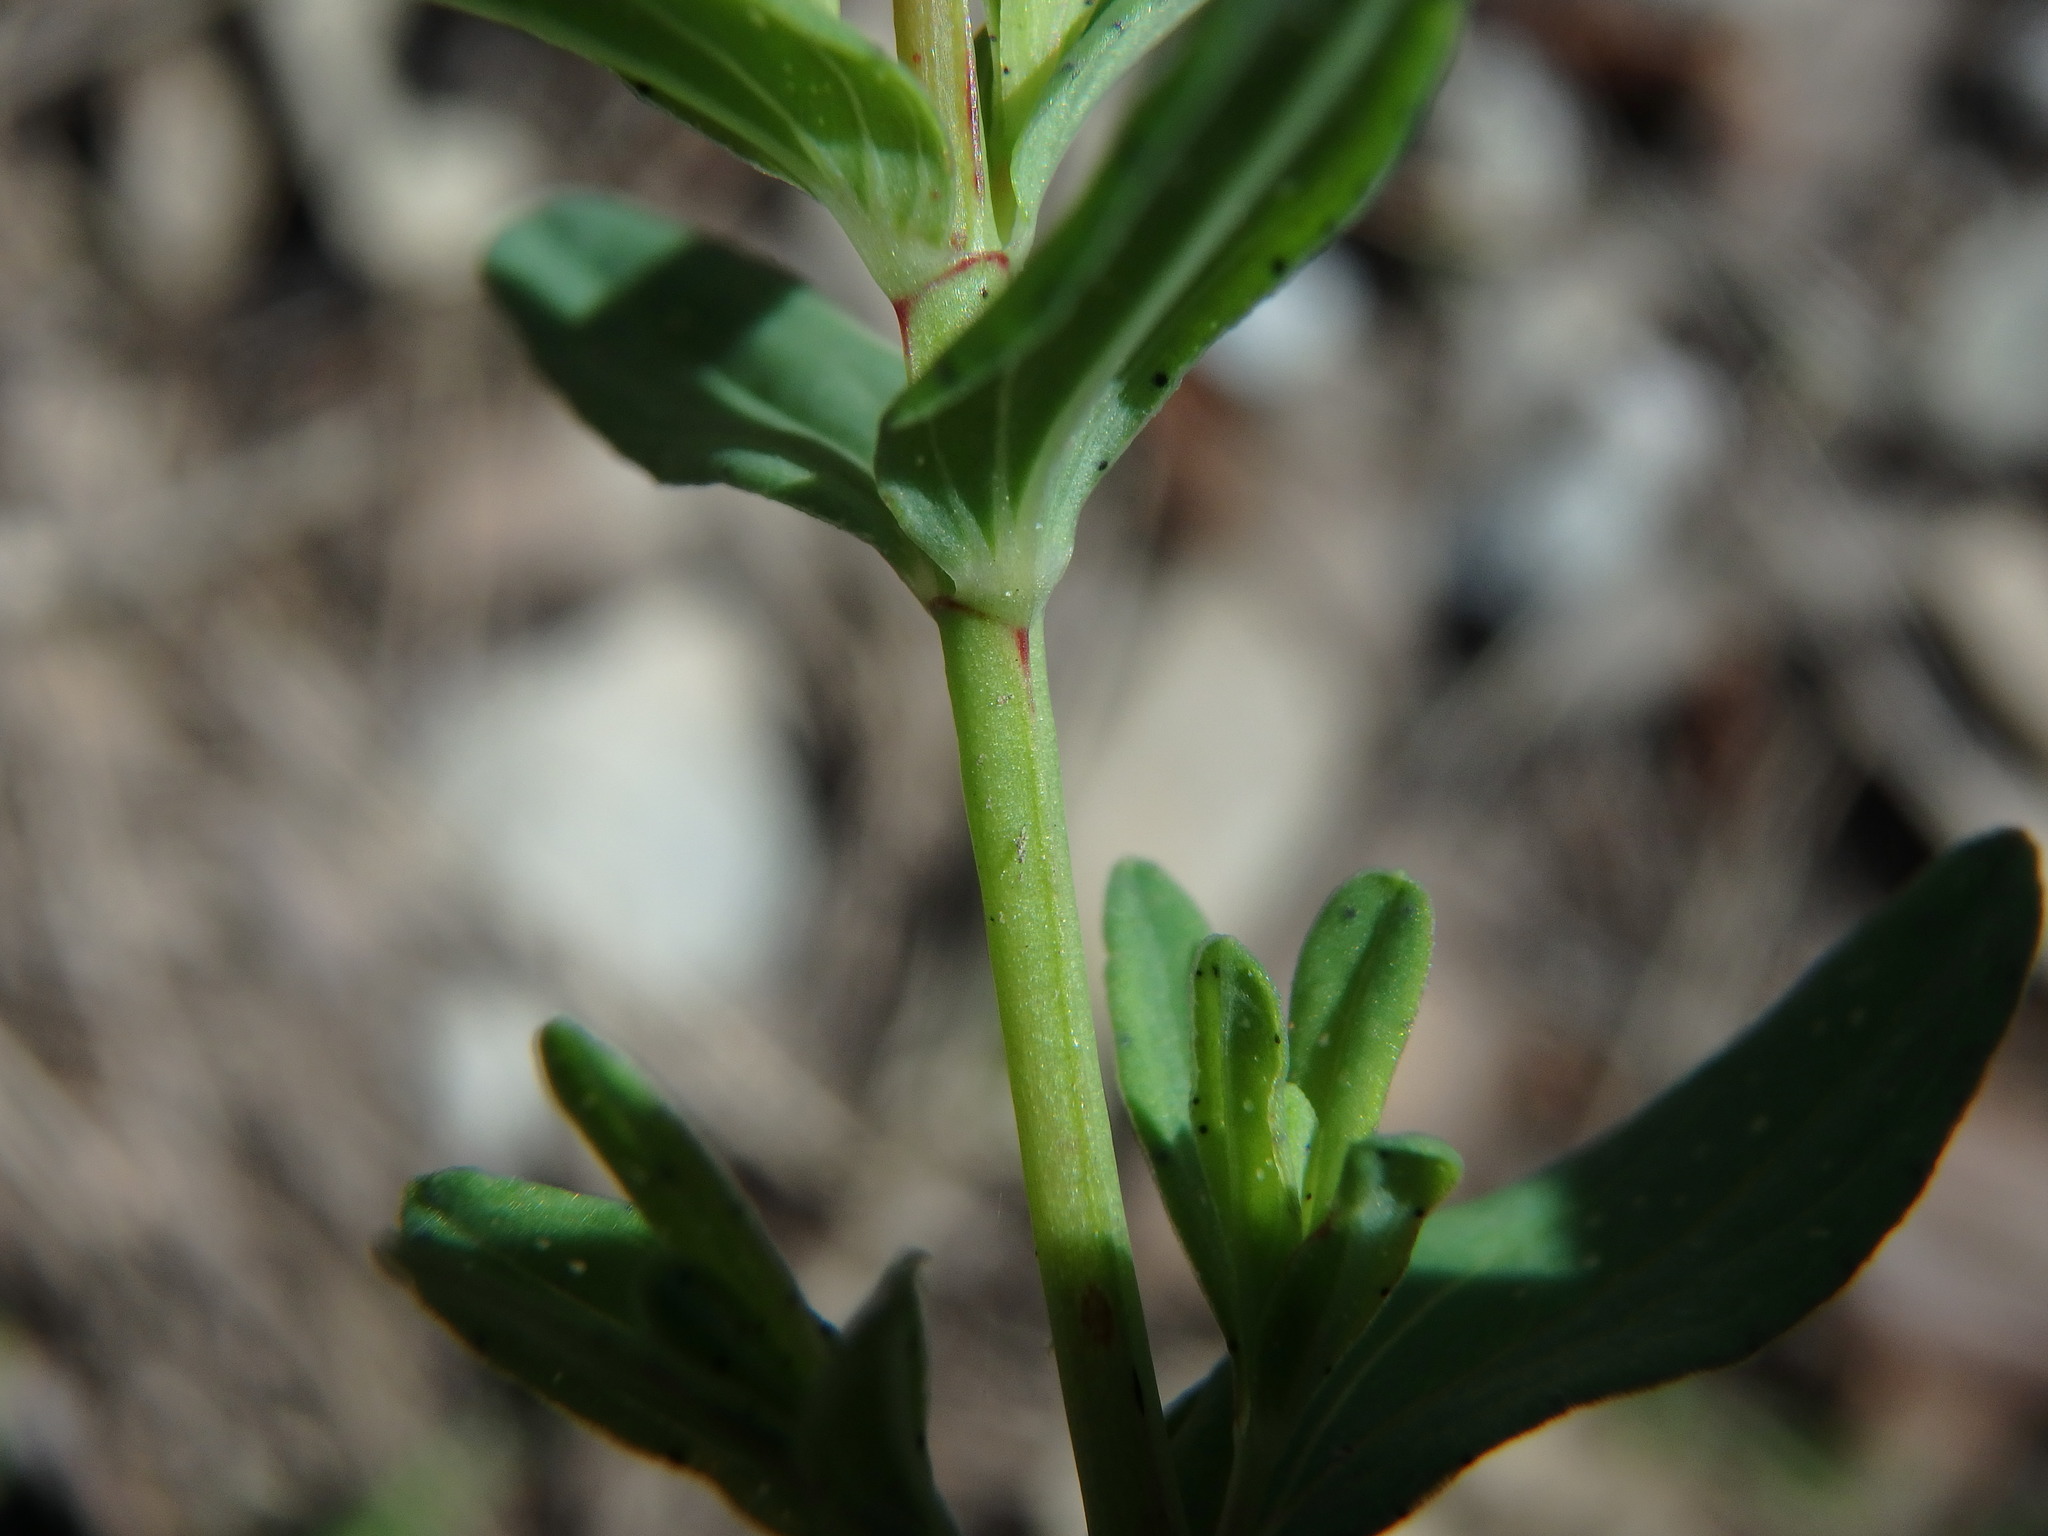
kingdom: Plantae
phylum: Tracheophyta
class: Magnoliopsida
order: Malpighiales
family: Hypericaceae
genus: Hypericum
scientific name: Hypericum perforatum
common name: Common st. johnswort
